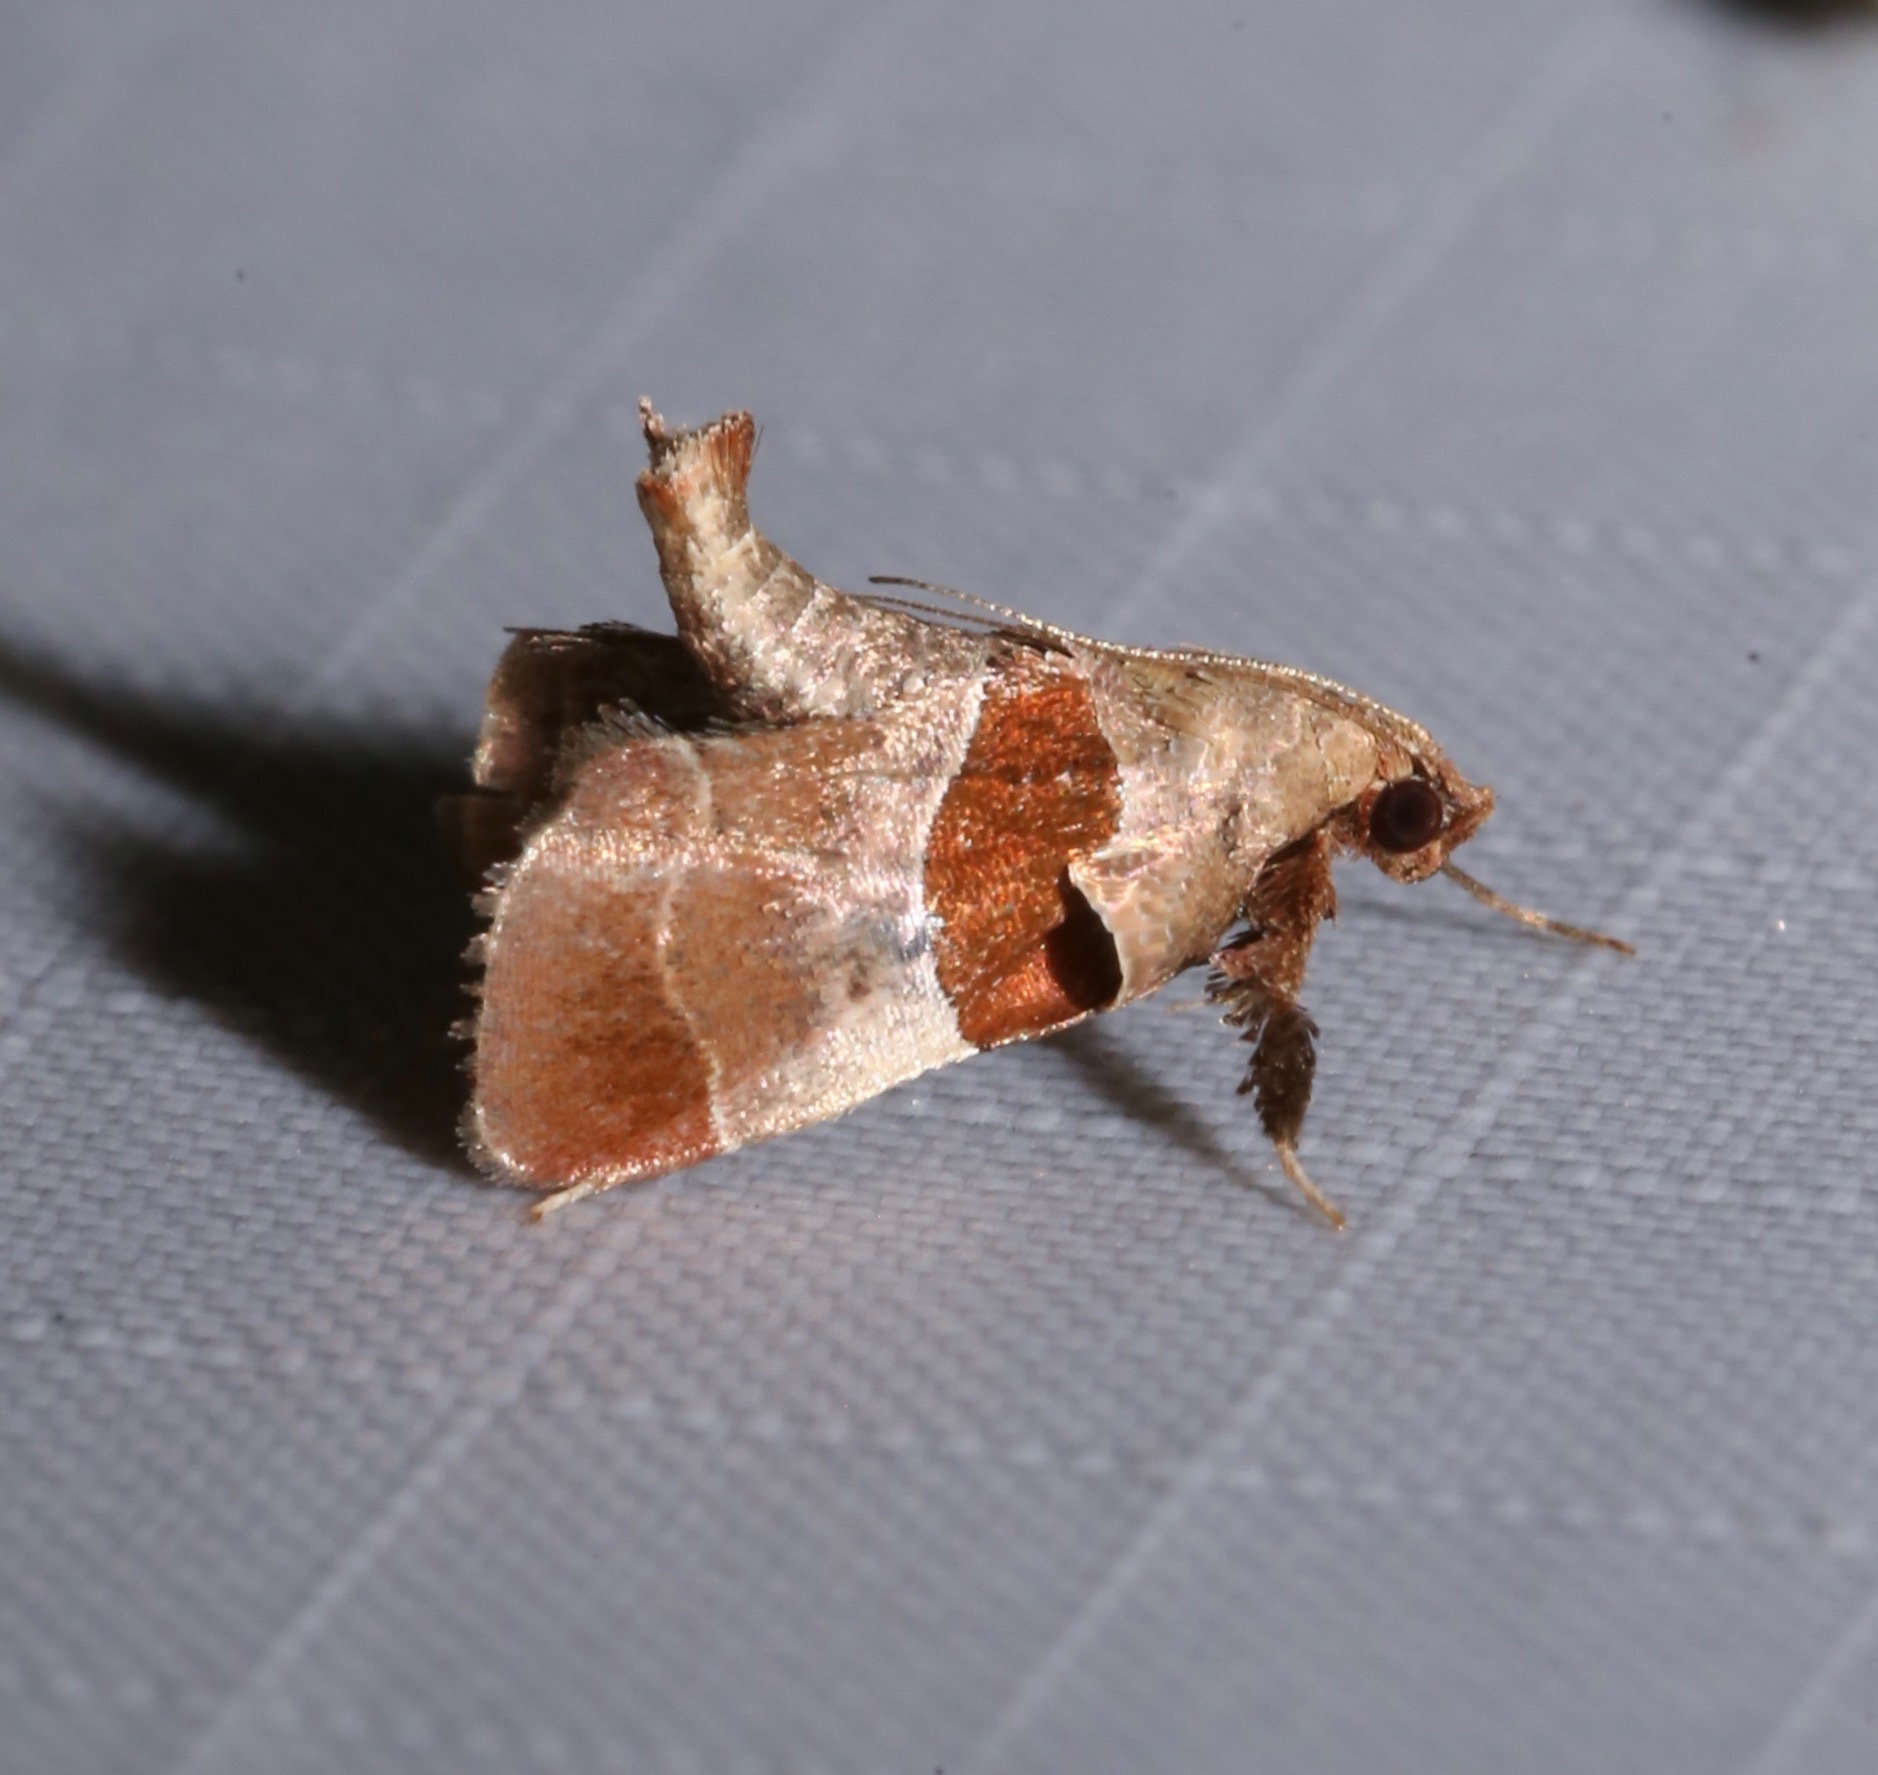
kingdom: Animalia
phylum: Arthropoda
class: Insecta
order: Lepidoptera
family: Pyralidae
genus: Tosale
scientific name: Tosale oviplagalis
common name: Dimorphic tosale moth
